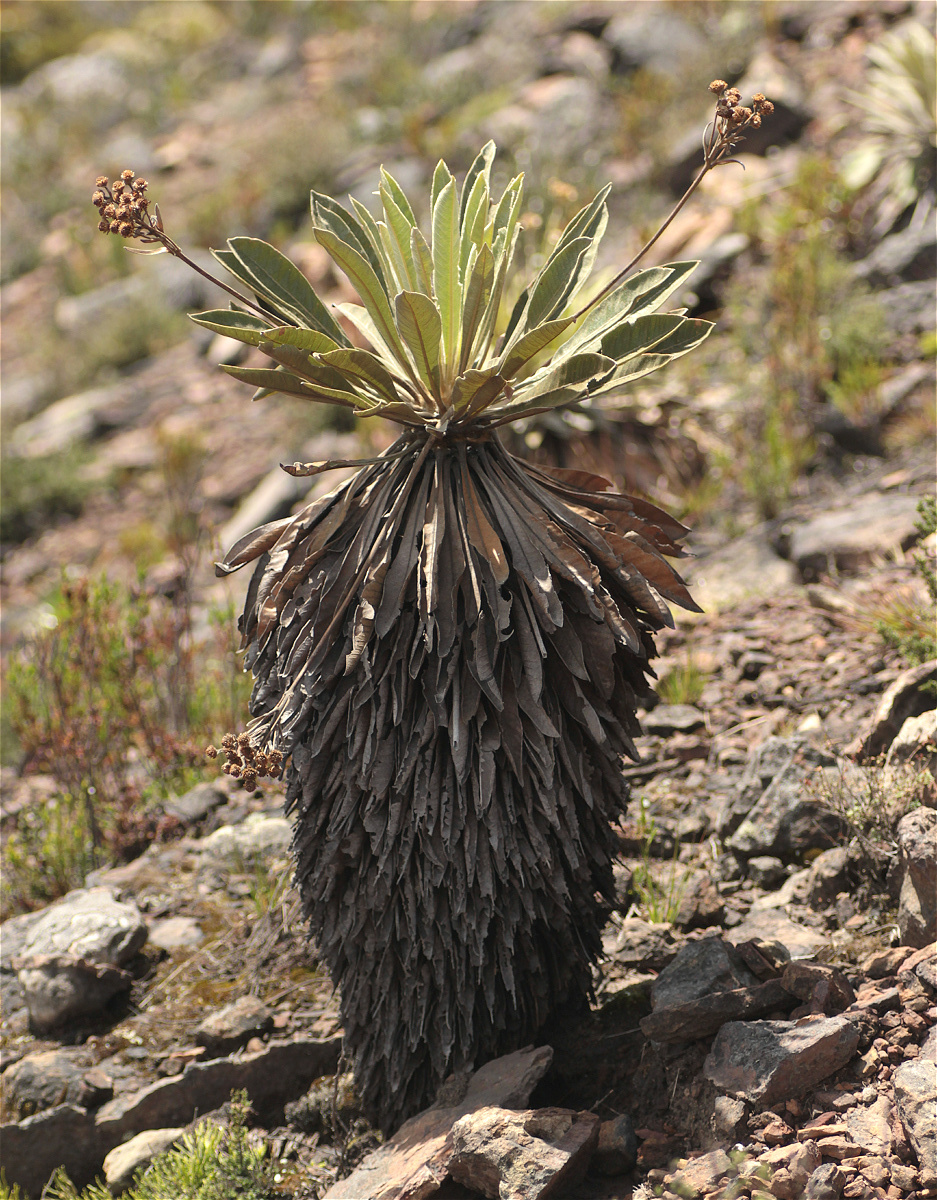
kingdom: Plantae
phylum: Tracheophyta
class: Magnoliopsida
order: Asterales
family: Asteraceae
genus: Espeletia
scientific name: Espeletia corymbosa
